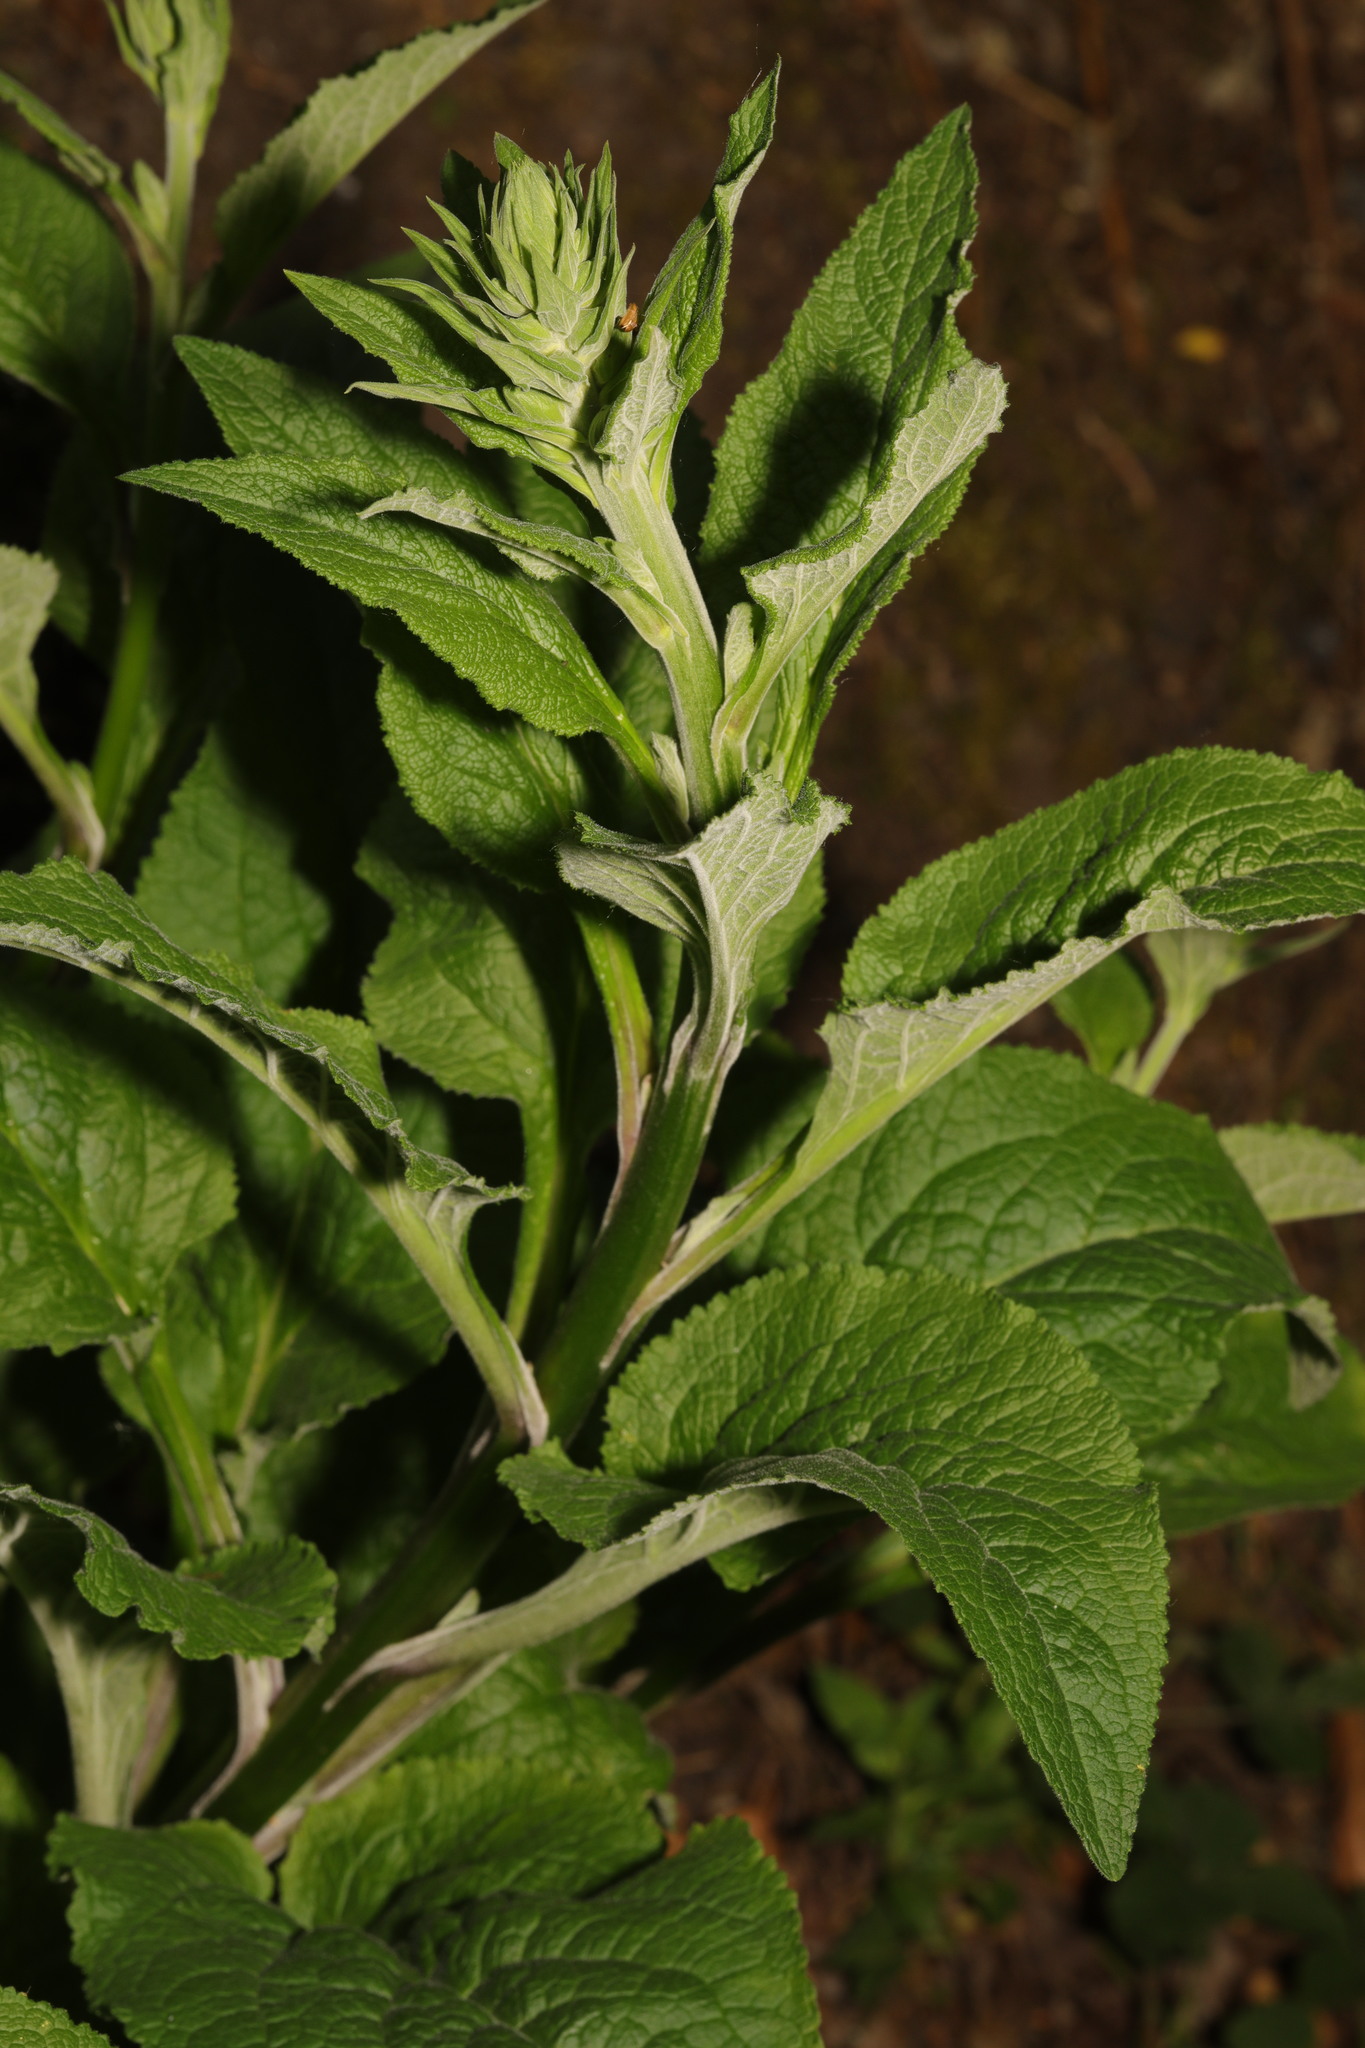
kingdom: Plantae
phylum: Tracheophyta
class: Magnoliopsida
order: Lamiales
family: Plantaginaceae
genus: Digitalis
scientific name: Digitalis purpurea
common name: Foxglove
